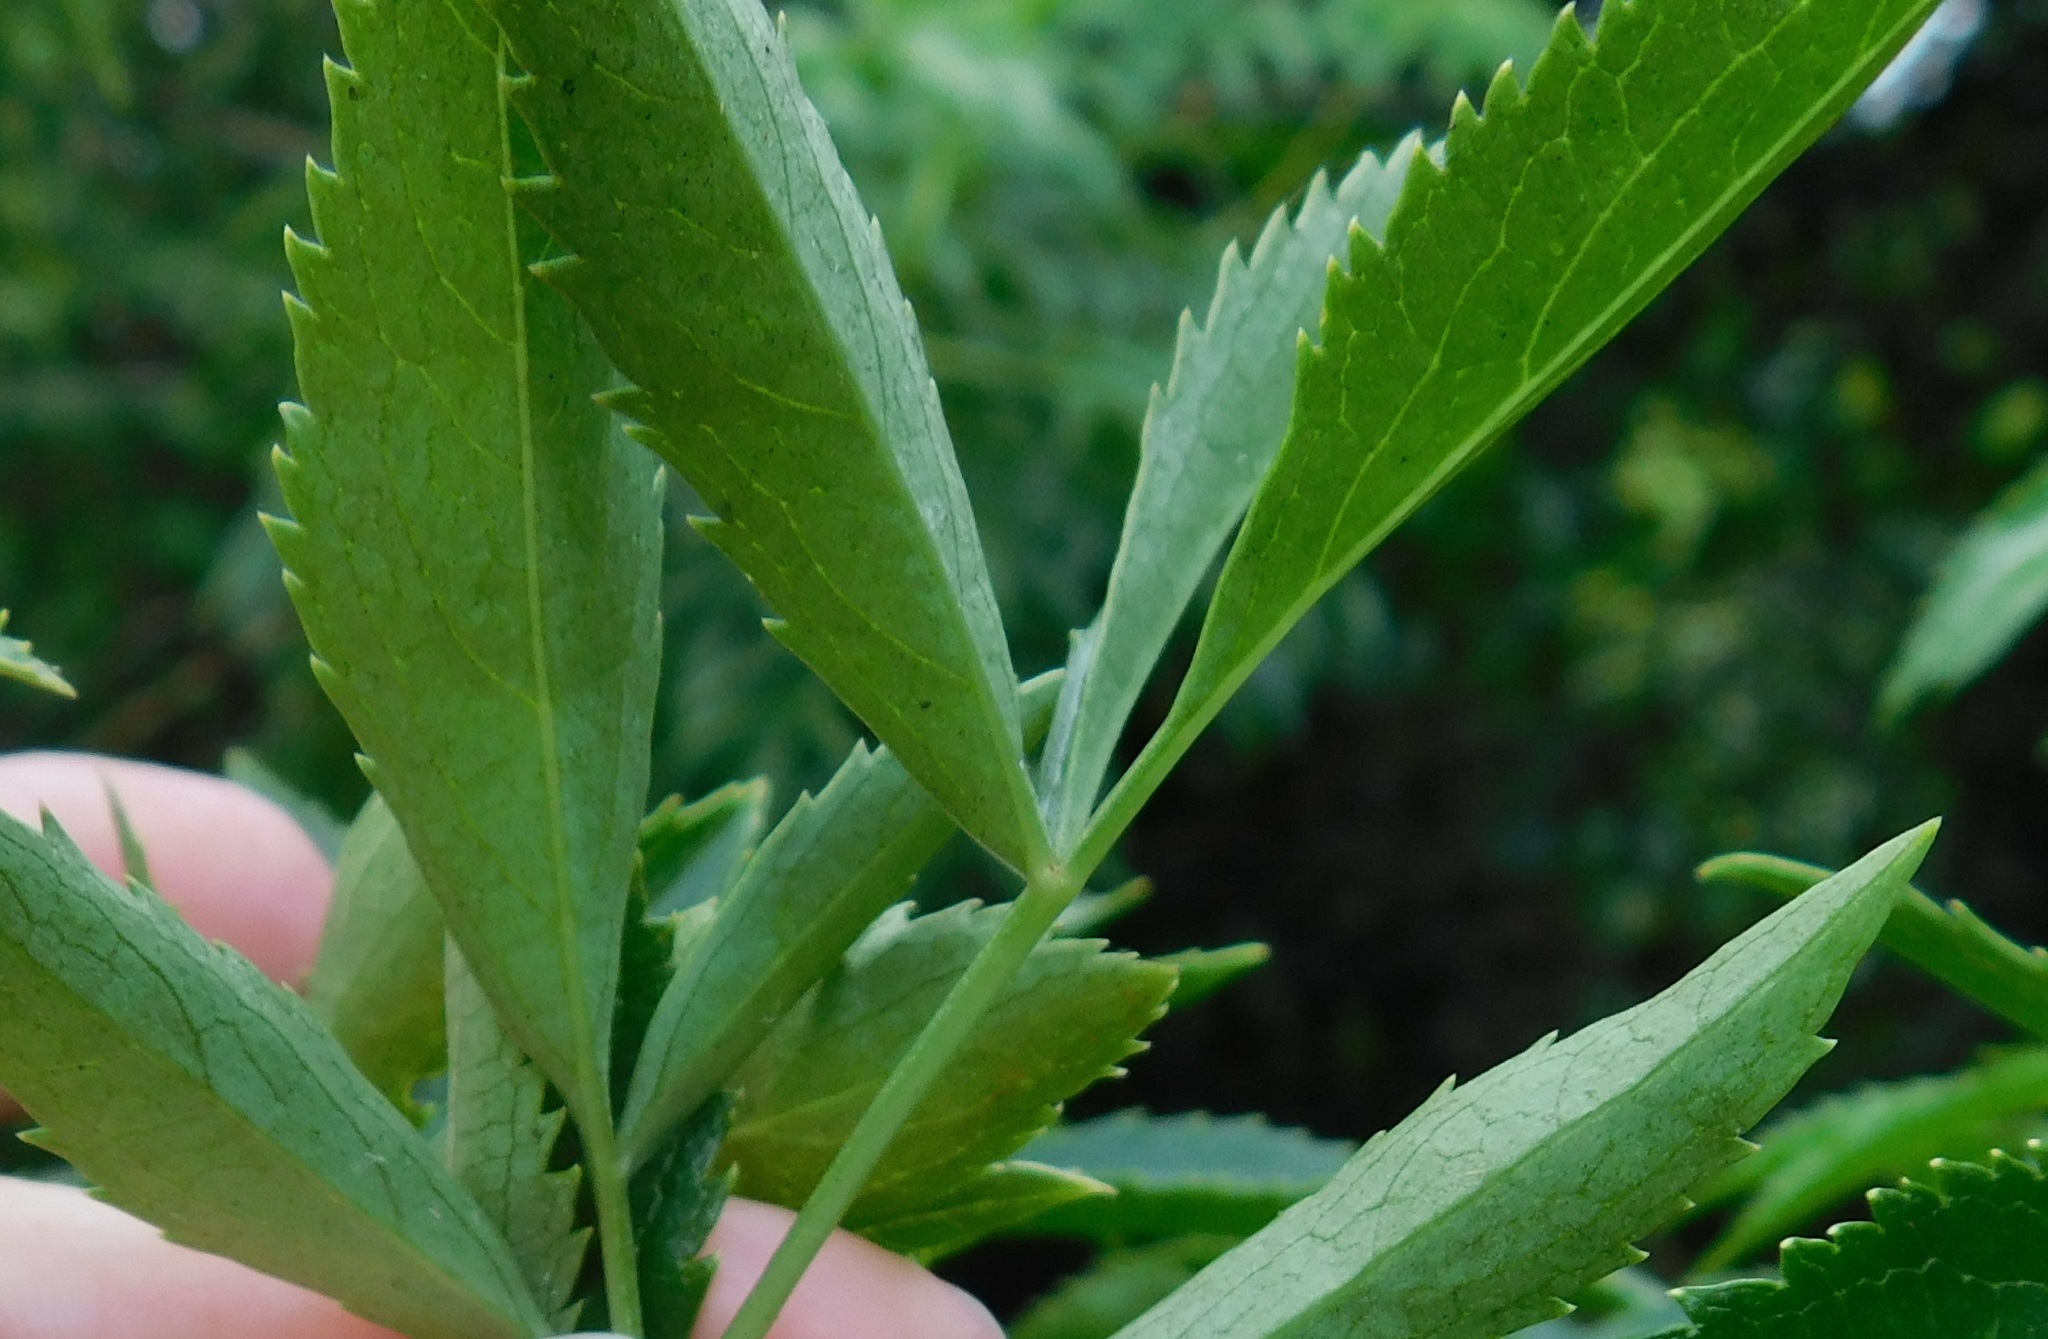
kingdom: Plantae
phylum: Tracheophyta
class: Magnoliopsida
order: Dipsacales
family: Viburnaceae
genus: Sambucus
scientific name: Sambucus canadensis
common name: American elder
